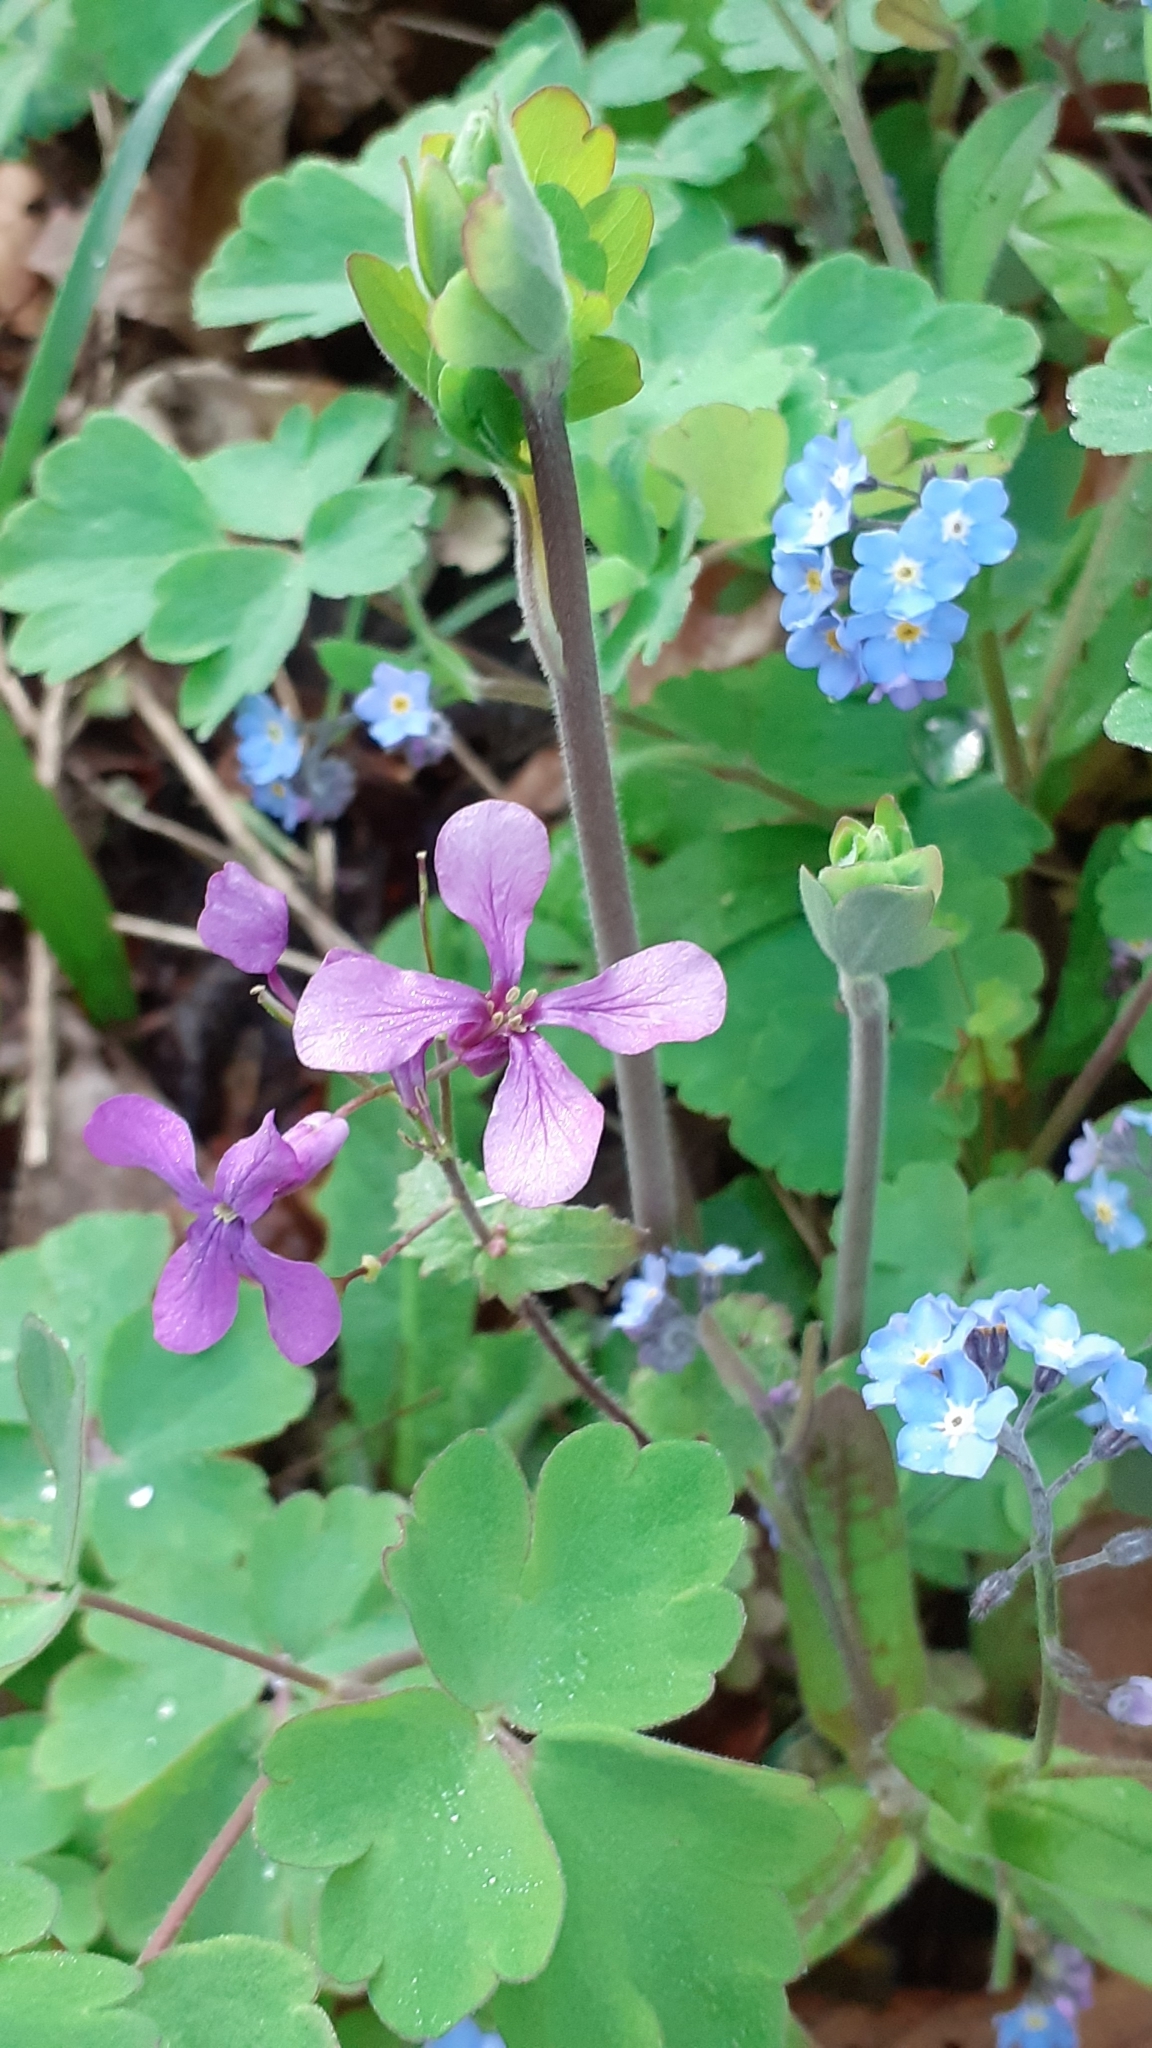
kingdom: Plantae
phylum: Tracheophyta
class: Magnoliopsida
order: Brassicales
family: Brassicaceae
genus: Lunaria
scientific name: Lunaria annua
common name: Honesty
